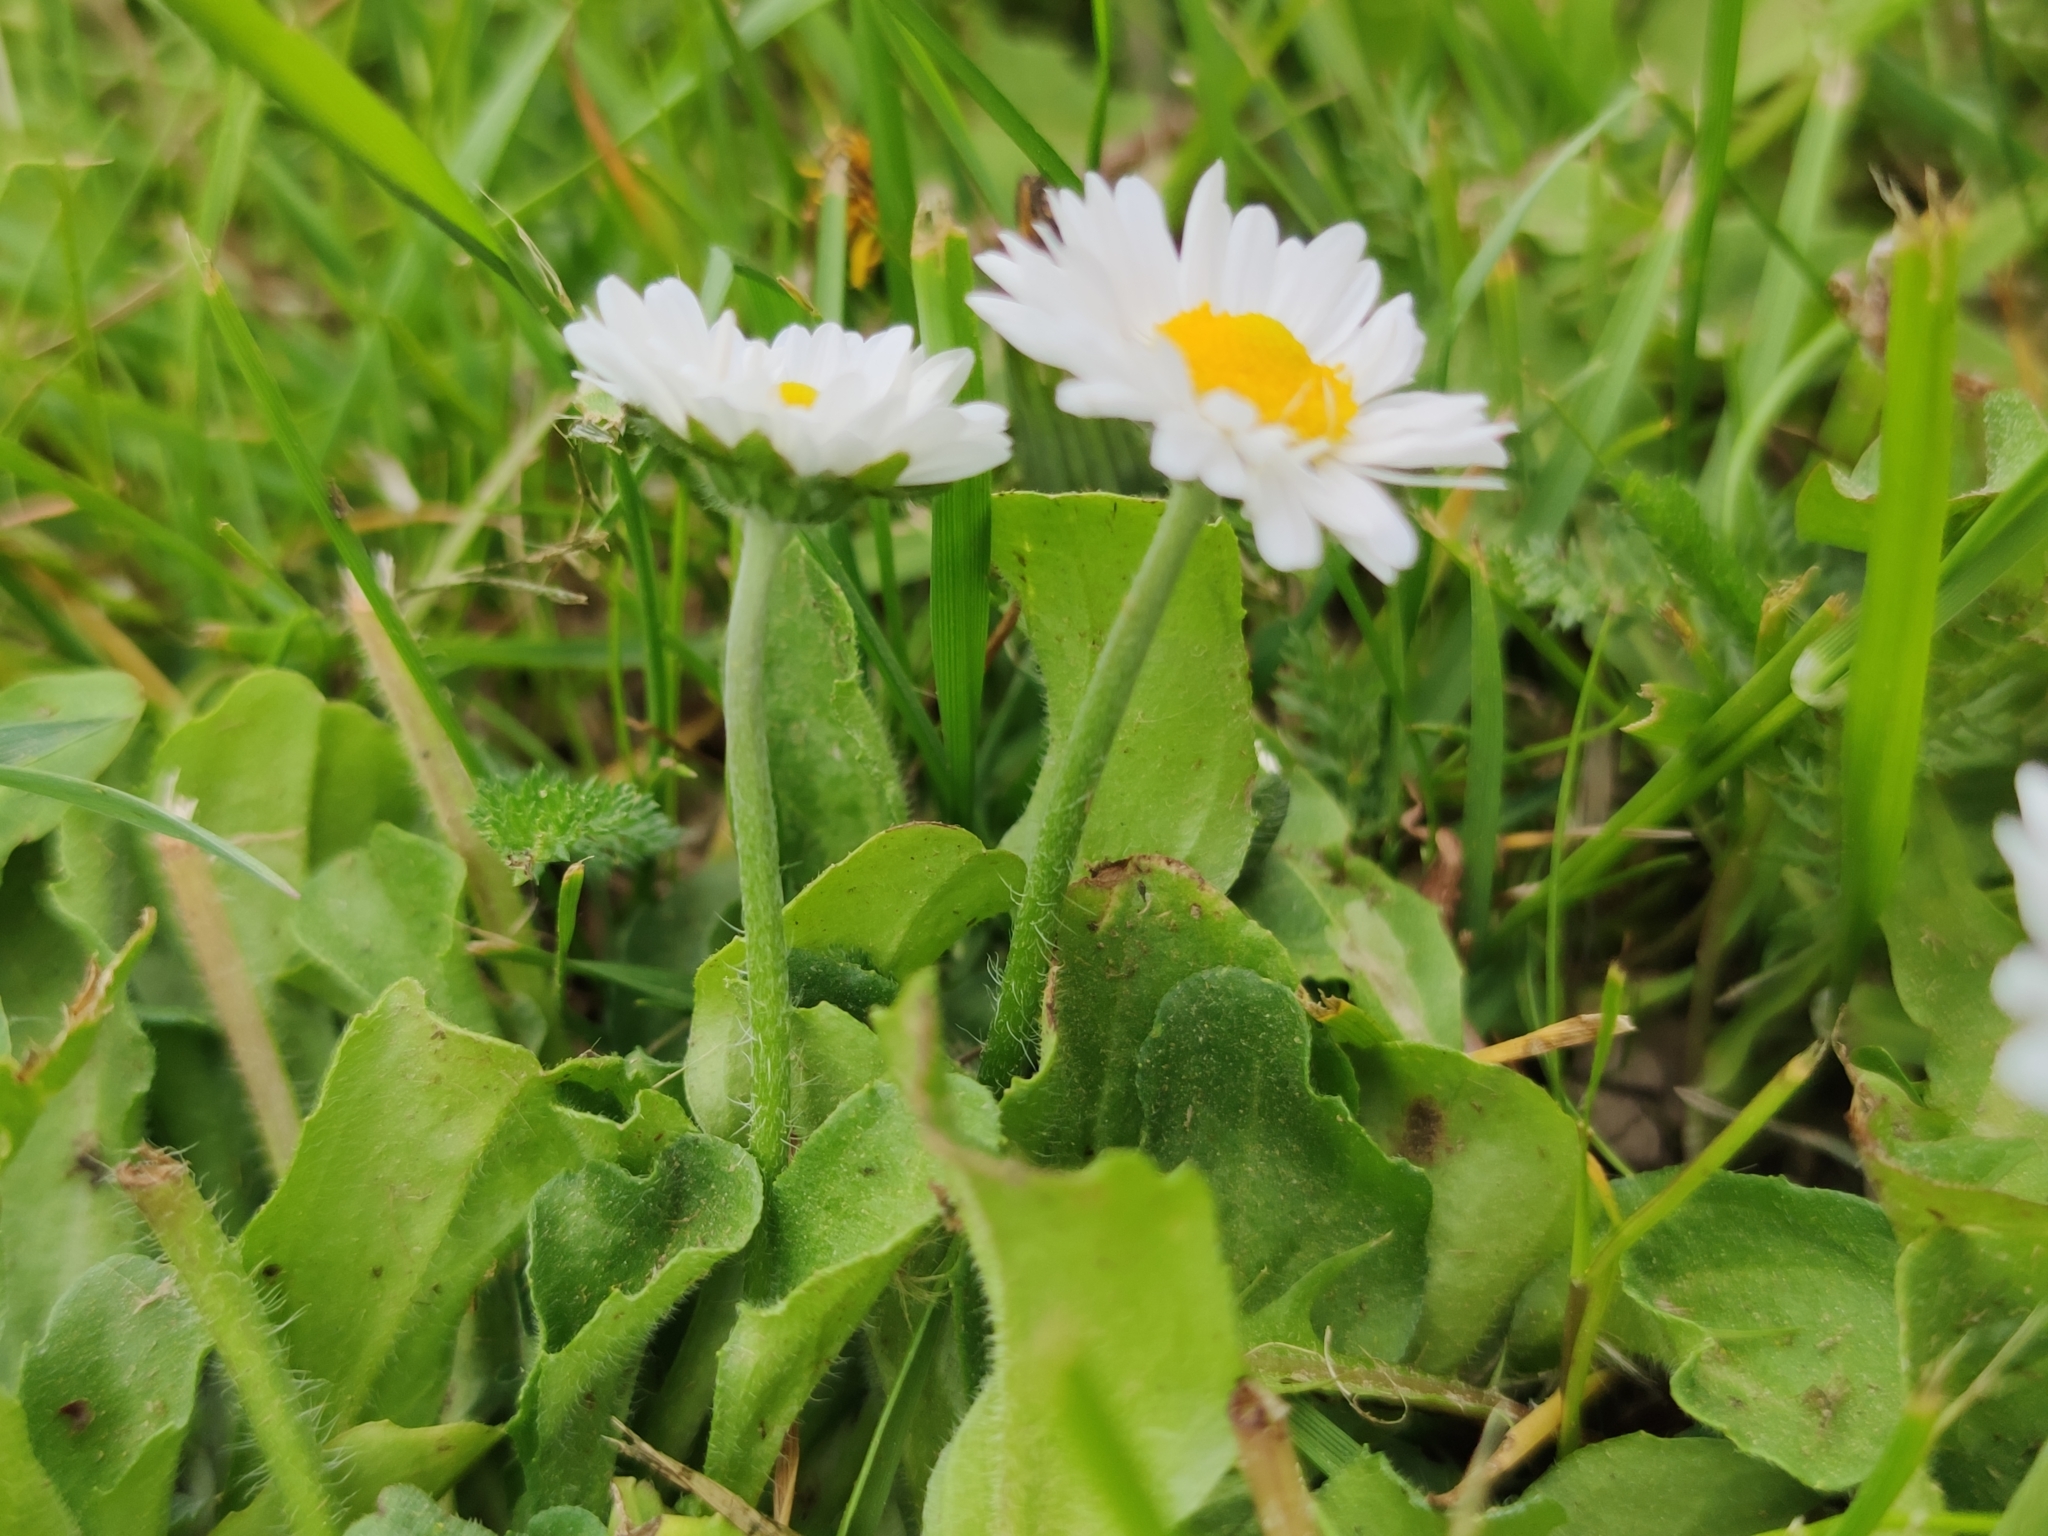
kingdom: Plantae
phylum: Tracheophyta
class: Magnoliopsida
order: Asterales
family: Asteraceae
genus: Bellis
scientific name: Bellis perennis
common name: Lawndaisy
